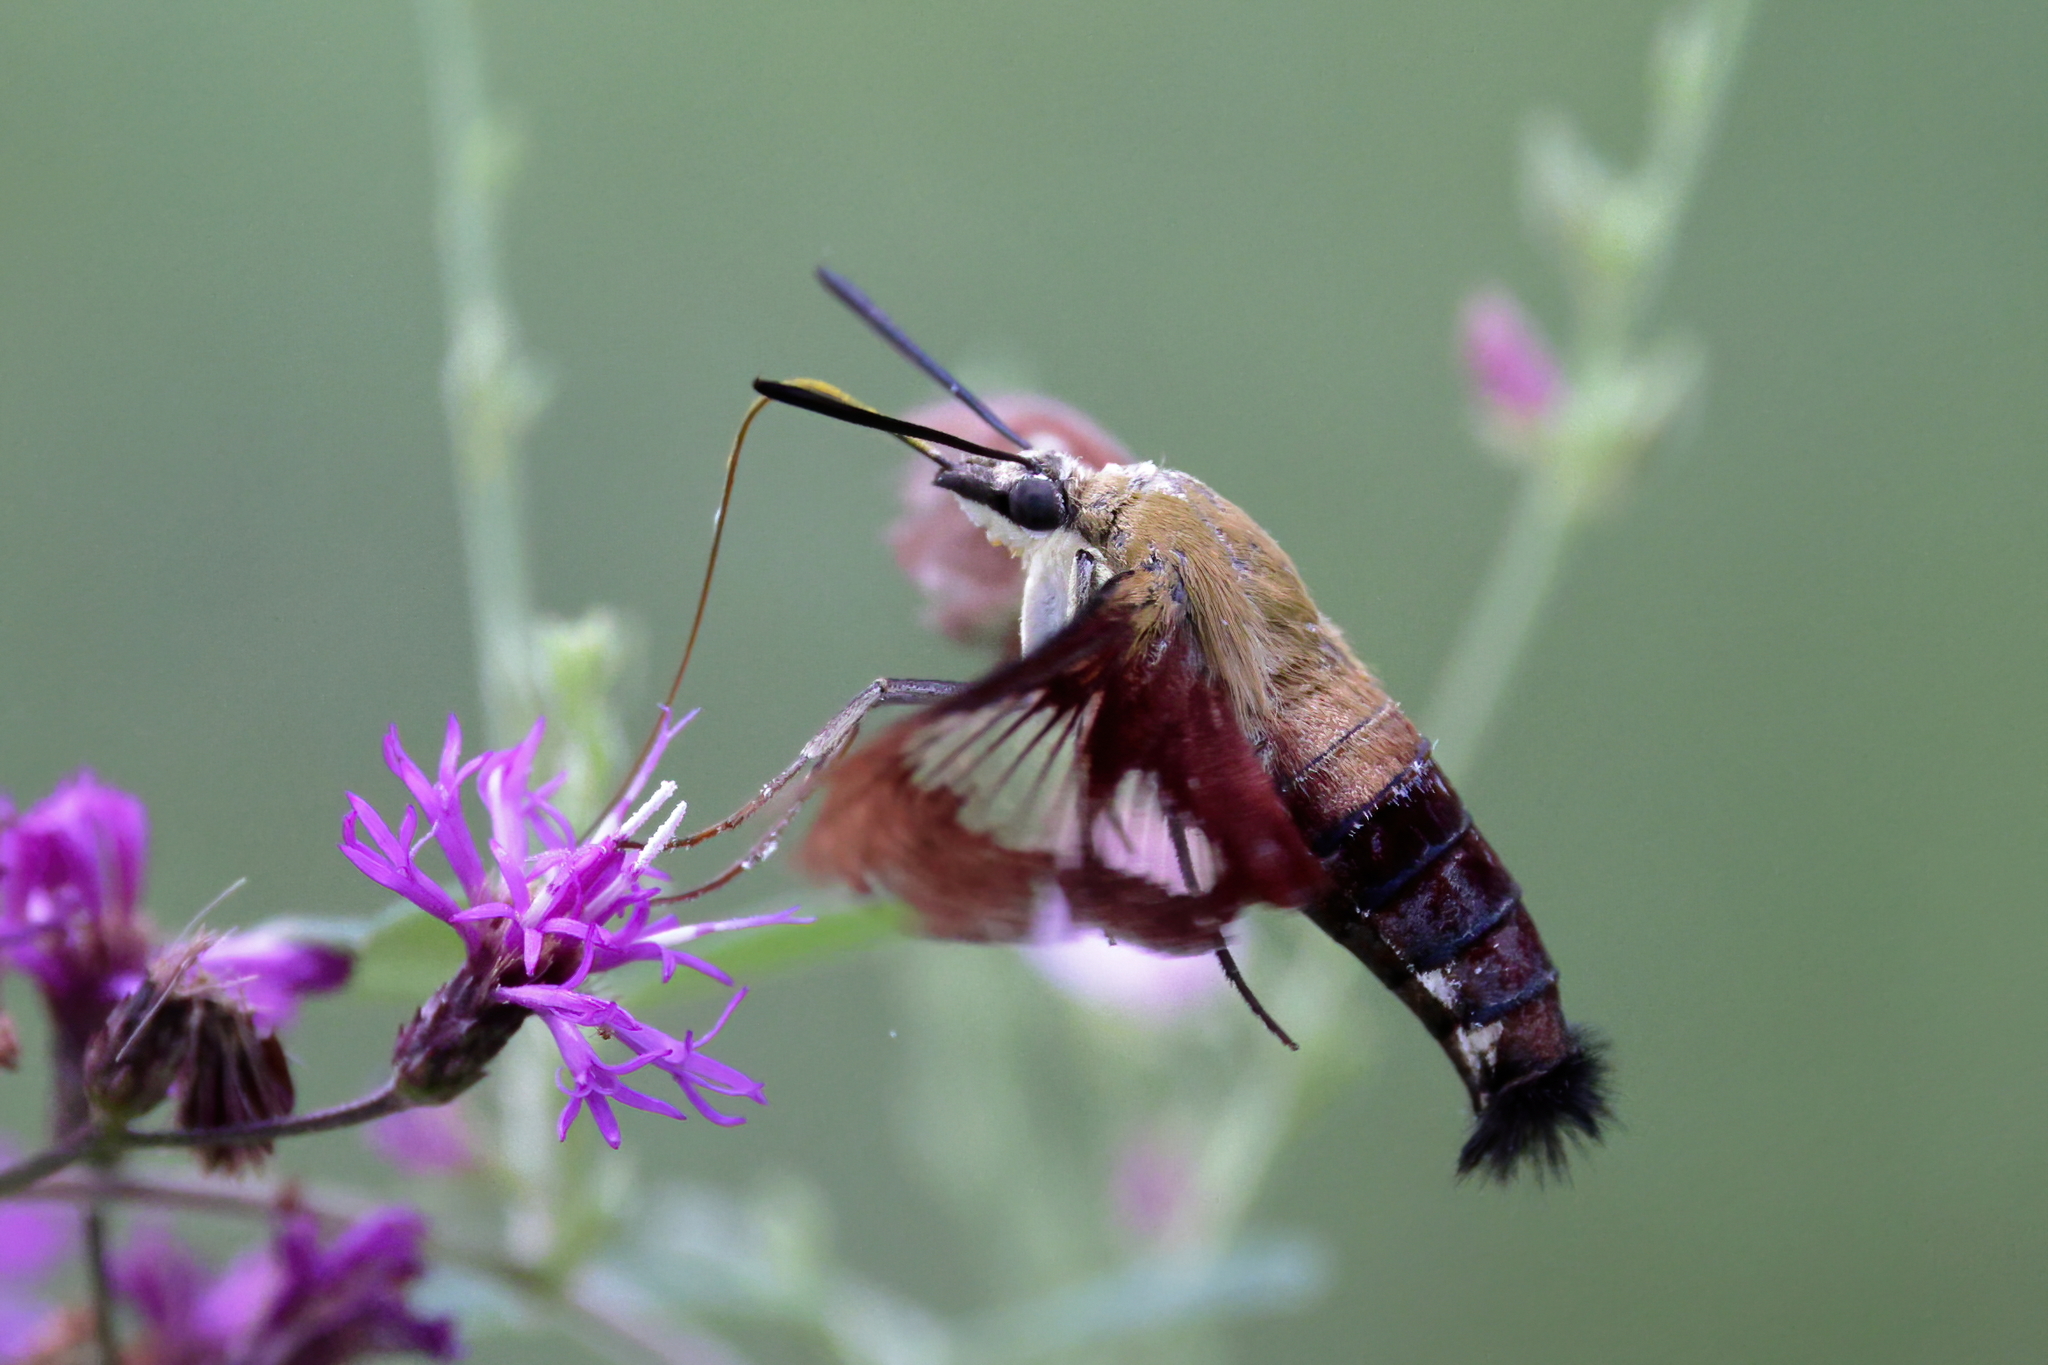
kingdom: Animalia
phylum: Arthropoda
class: Insecta
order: Lepidoptera
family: Sphingidae
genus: Hemaris
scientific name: Hemaris thysbe
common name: Common clear-wing
